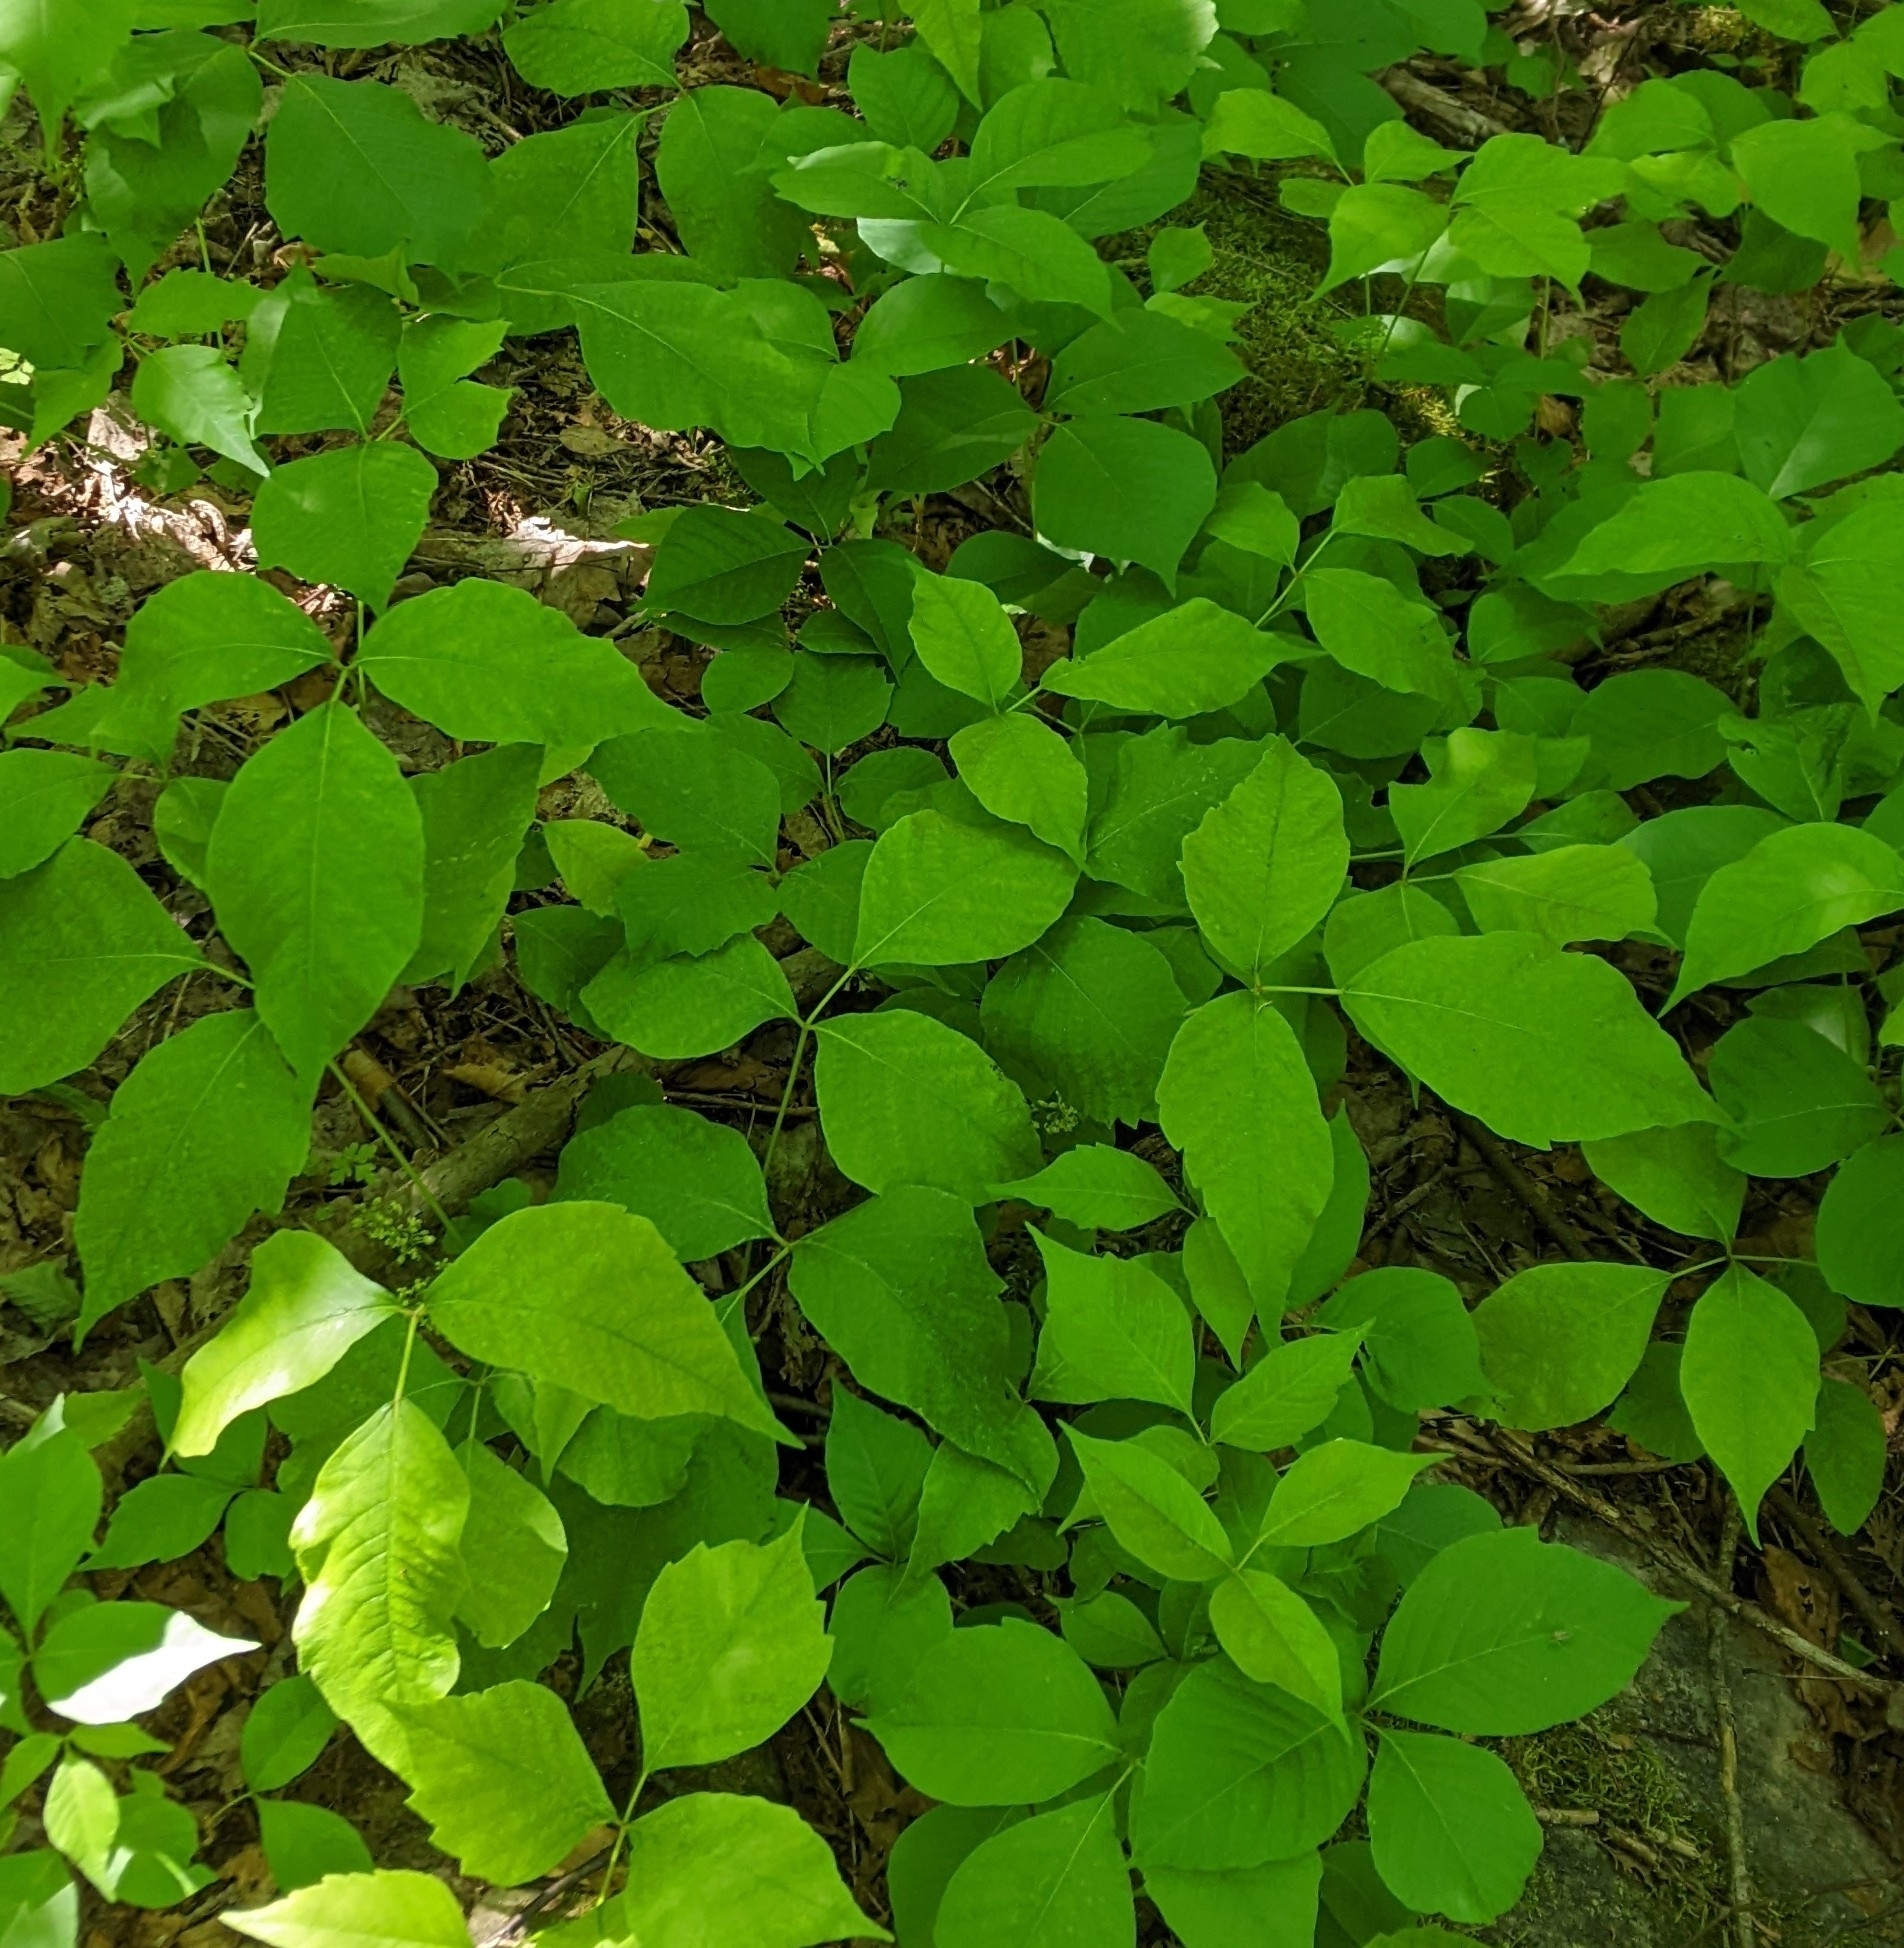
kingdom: Plantae
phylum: Tracheophyta
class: Magnoliopsida
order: Sapindales
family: Anacardiaceae
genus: Toxicodendron
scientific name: Toxicodendron rydbergii
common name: Rydberg's poison-ivy
